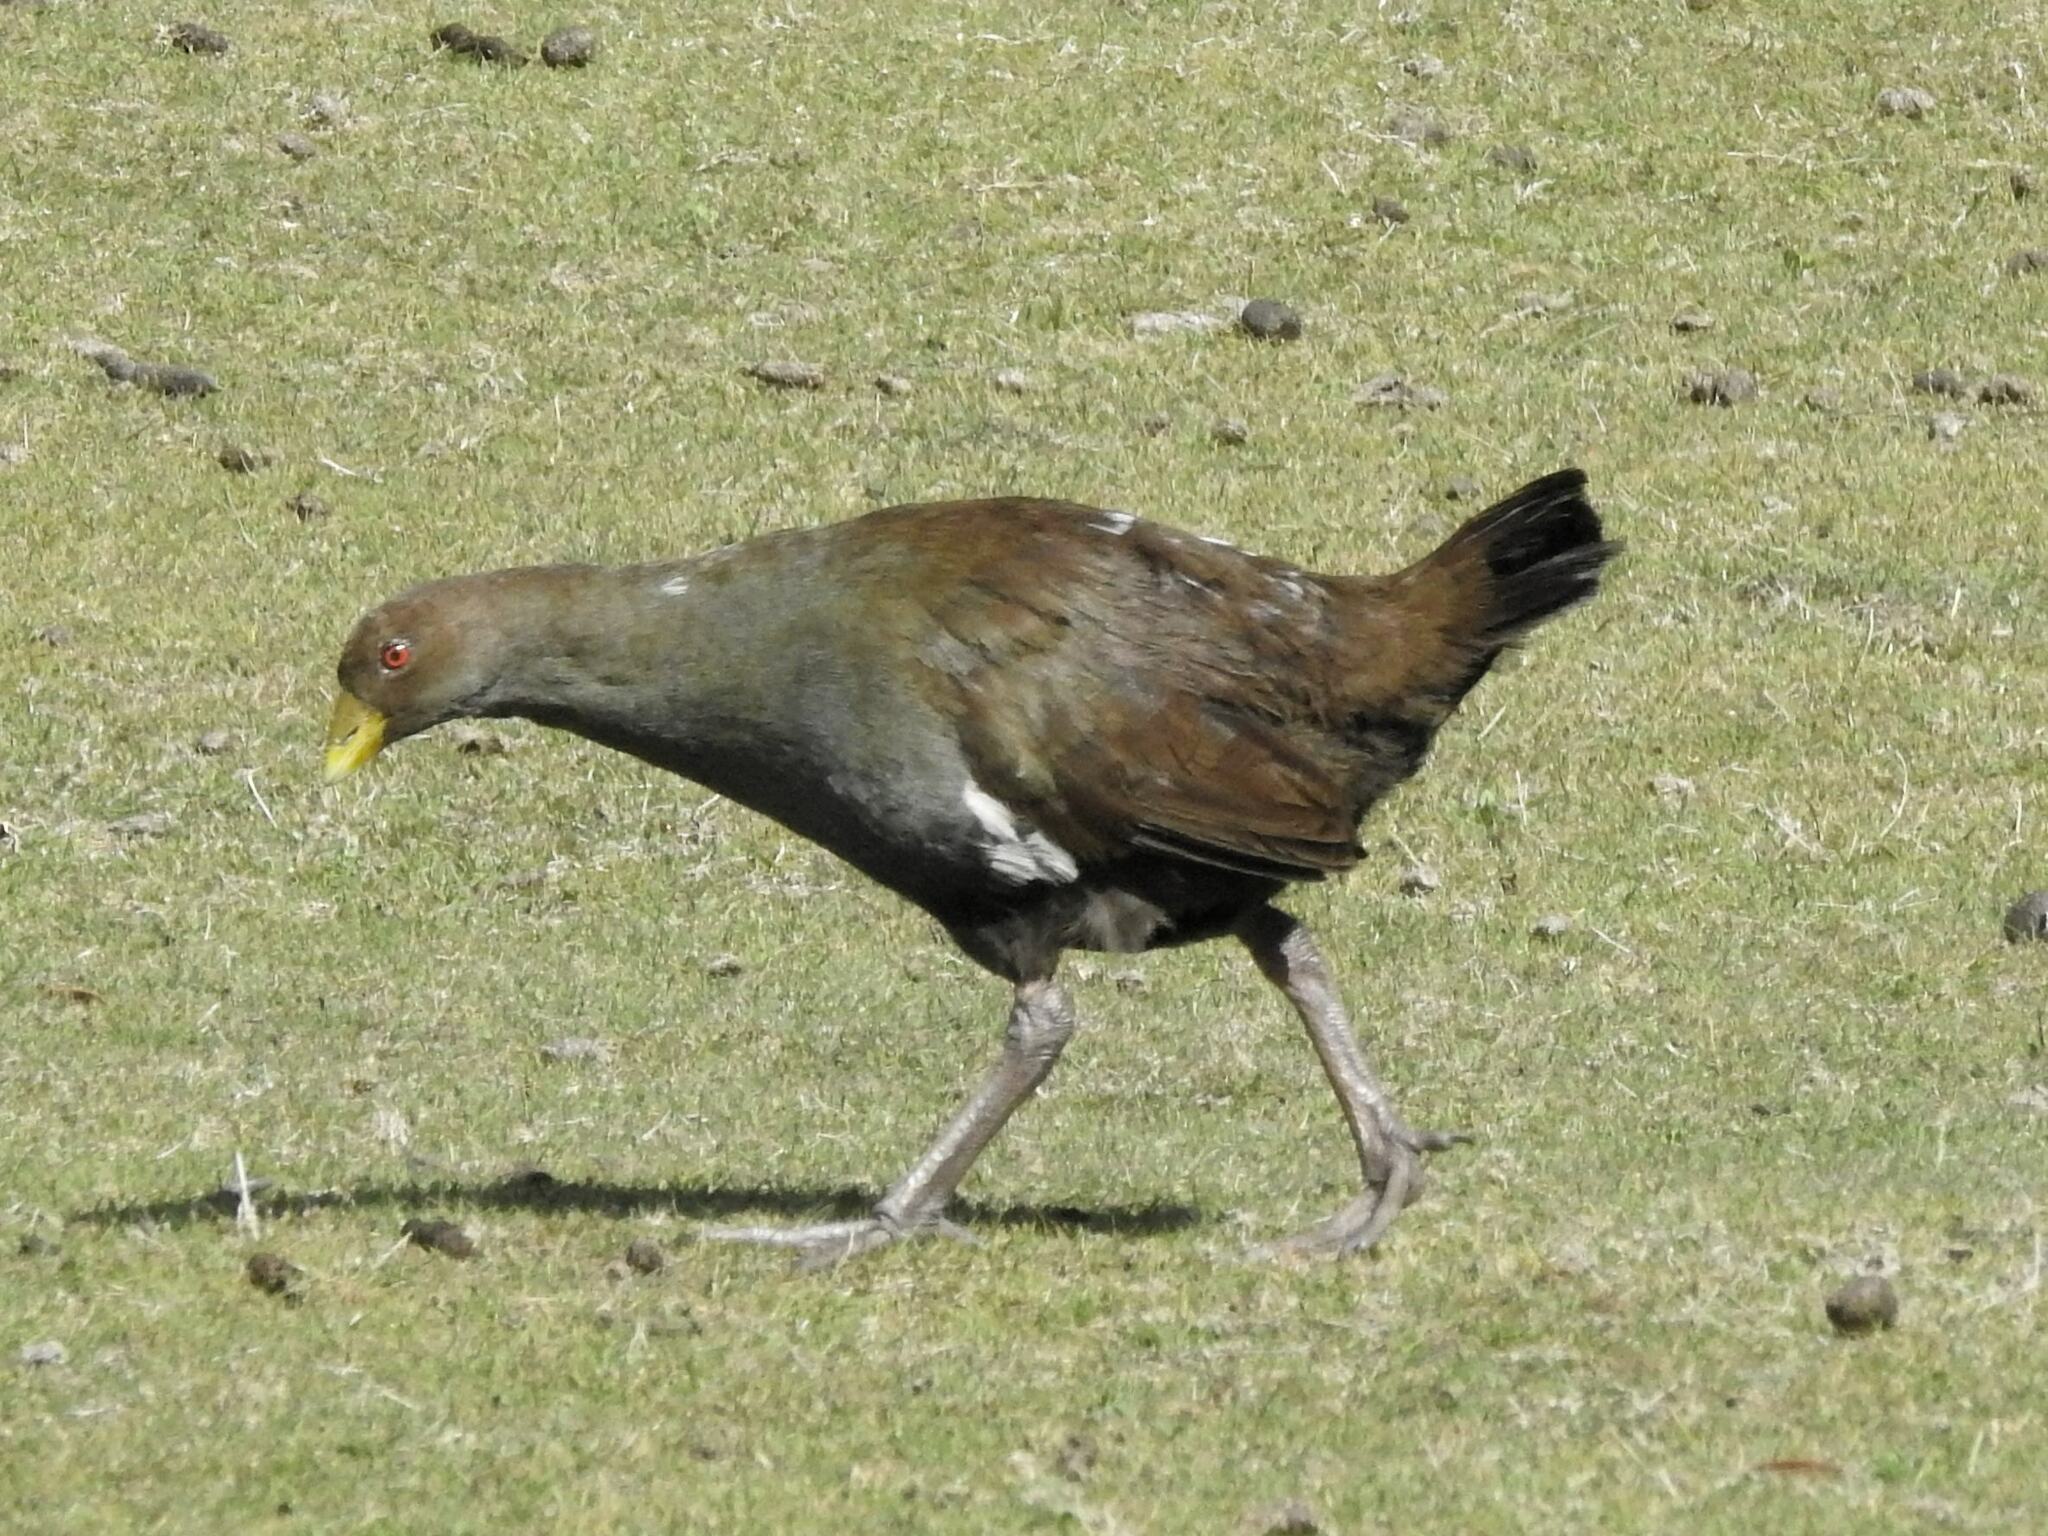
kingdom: Animalia
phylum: Chordata
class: Aves
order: Gruiformes
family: Rallidae
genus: Gallinula
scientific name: Gallinula mortierii
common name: Tasmanian nativehen
